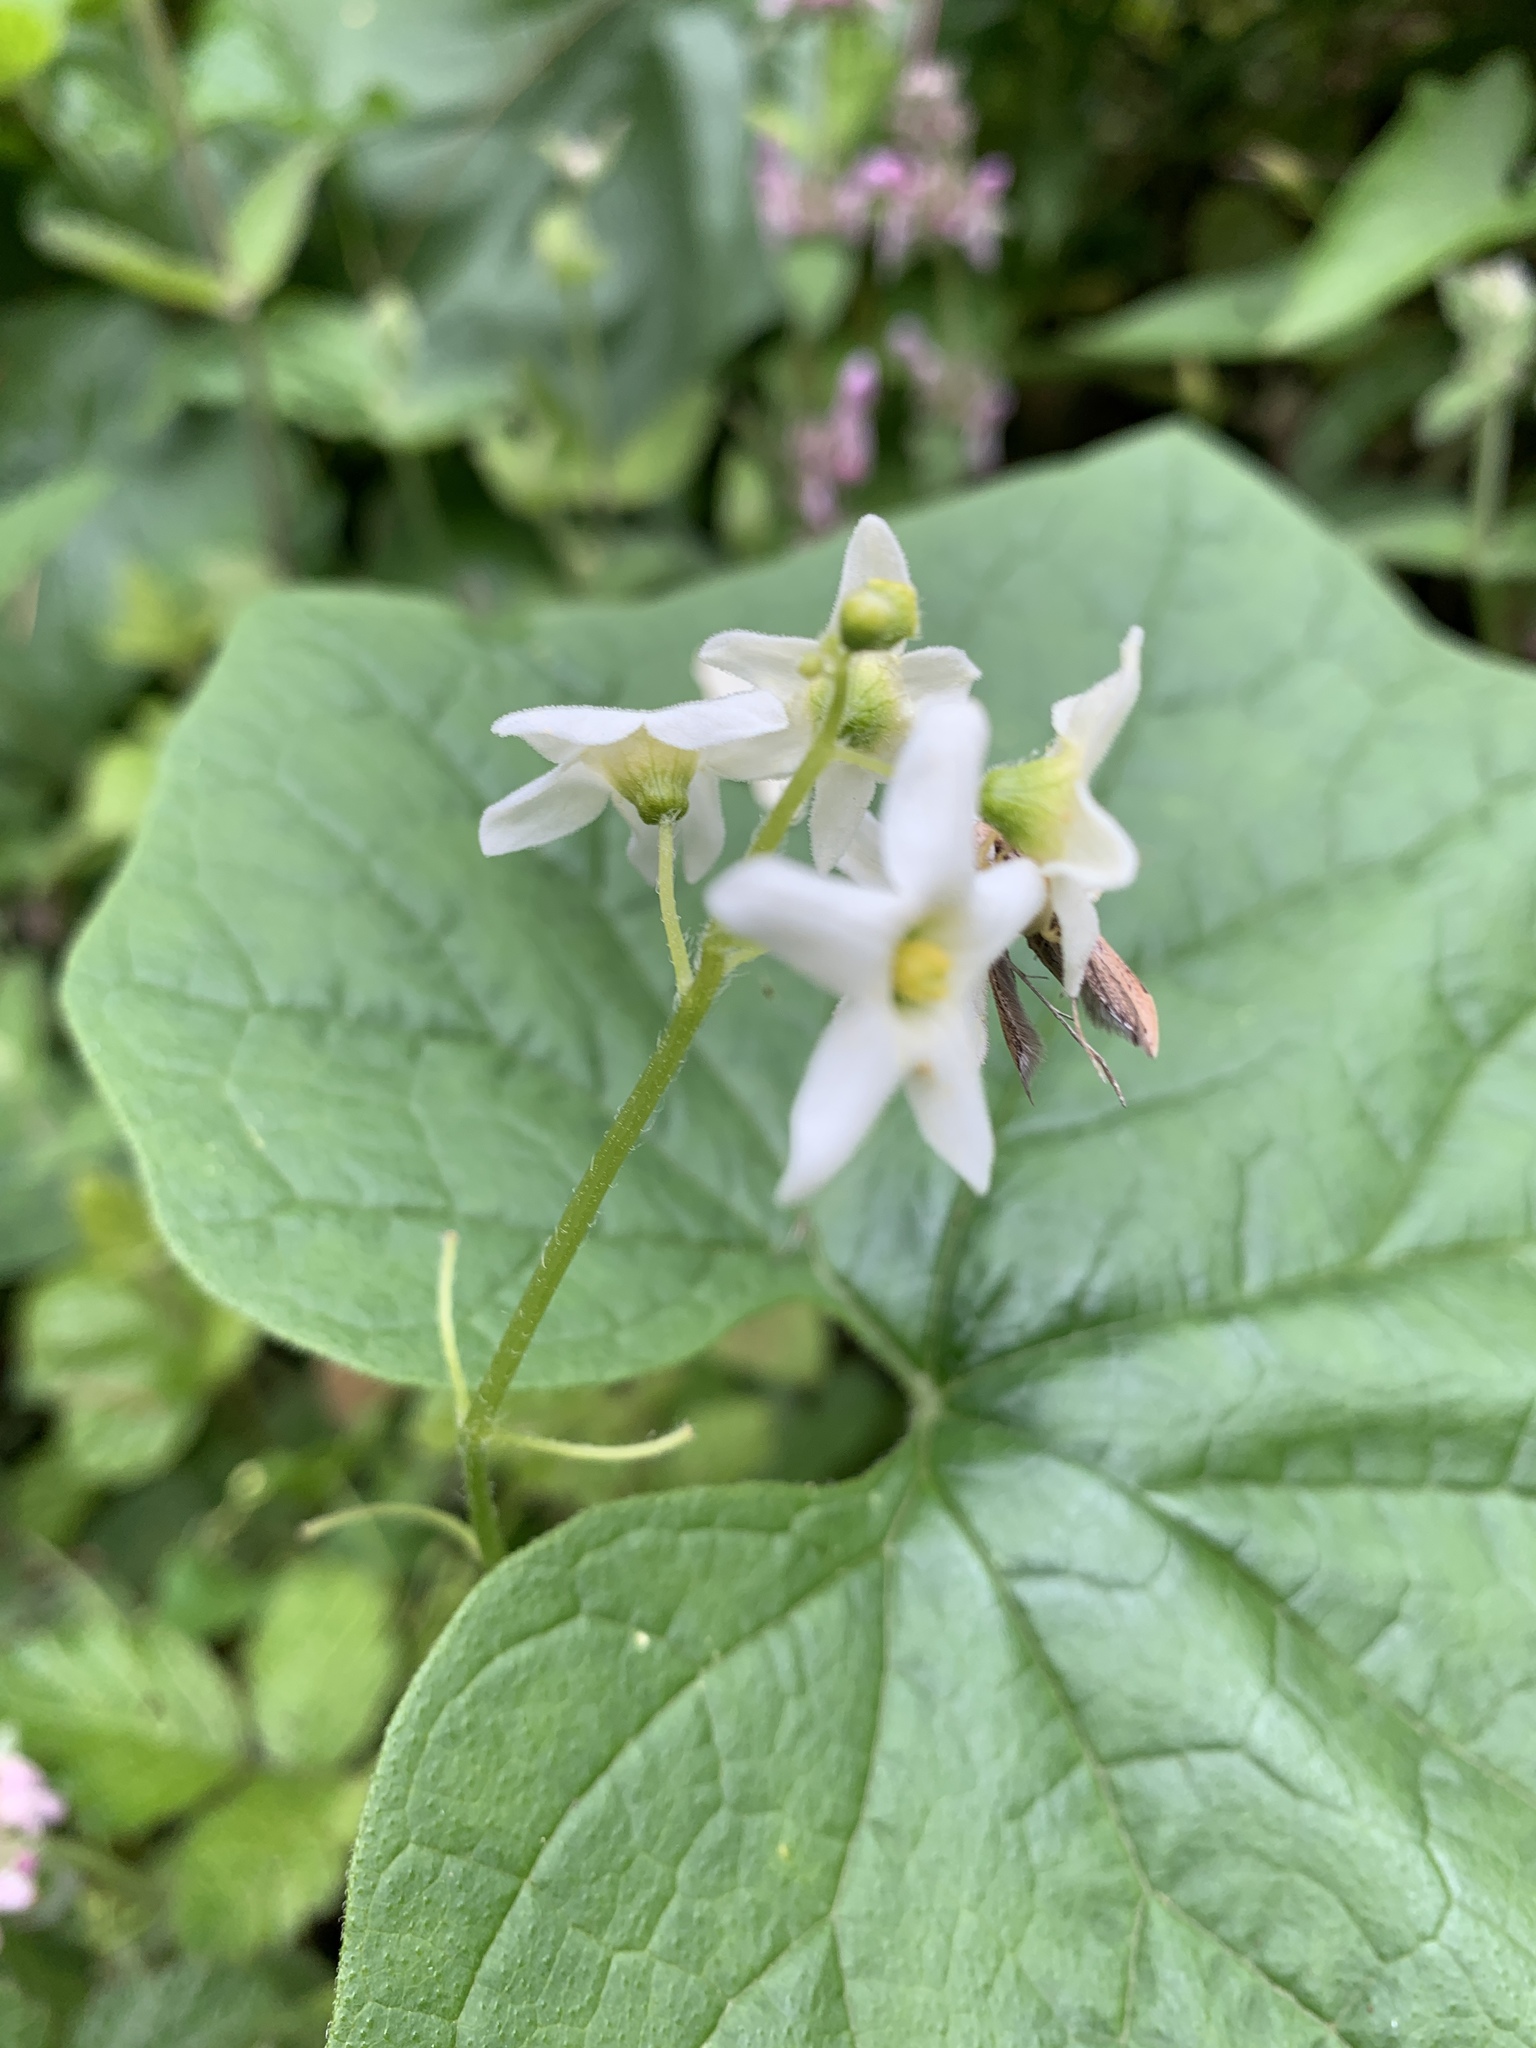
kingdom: Plantae
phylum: Tracheophyta
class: Magnoliopsida
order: Cucurbitales
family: Cucurbitaceae
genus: Marah
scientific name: Marah oregana
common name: Coastal manroot
